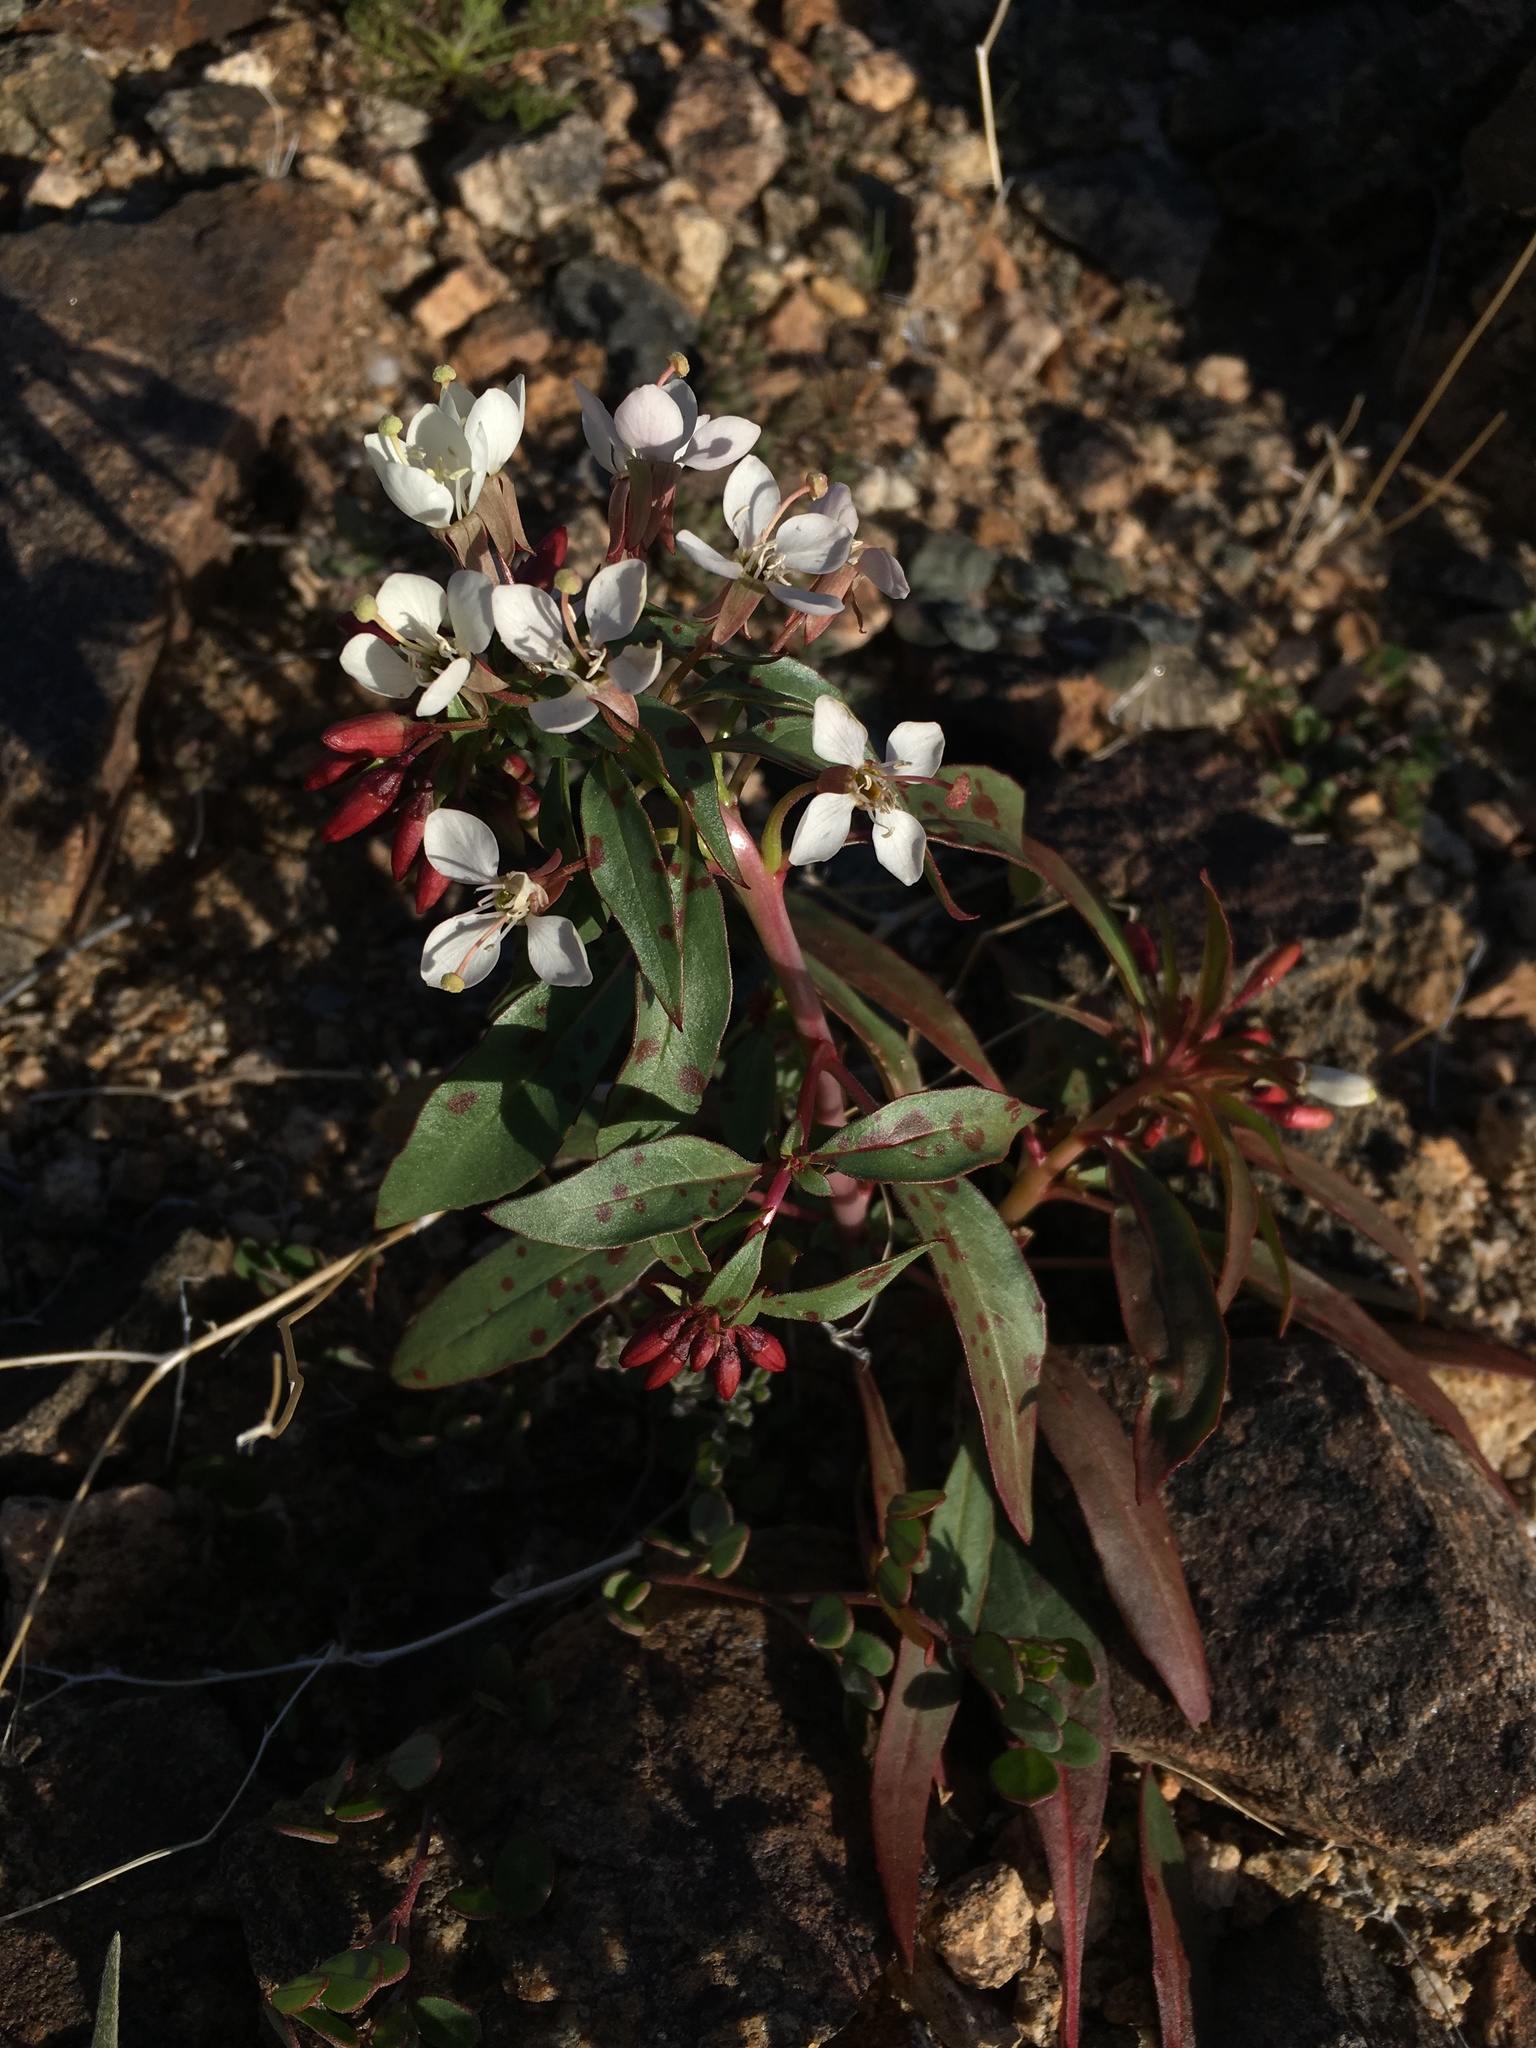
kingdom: Plantae
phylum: Tracheophyta
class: Magnoliopsida
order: Myrtales
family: Onagraceae
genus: Eremothera
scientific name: Eremothera boothii
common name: Booth's evening primrose
